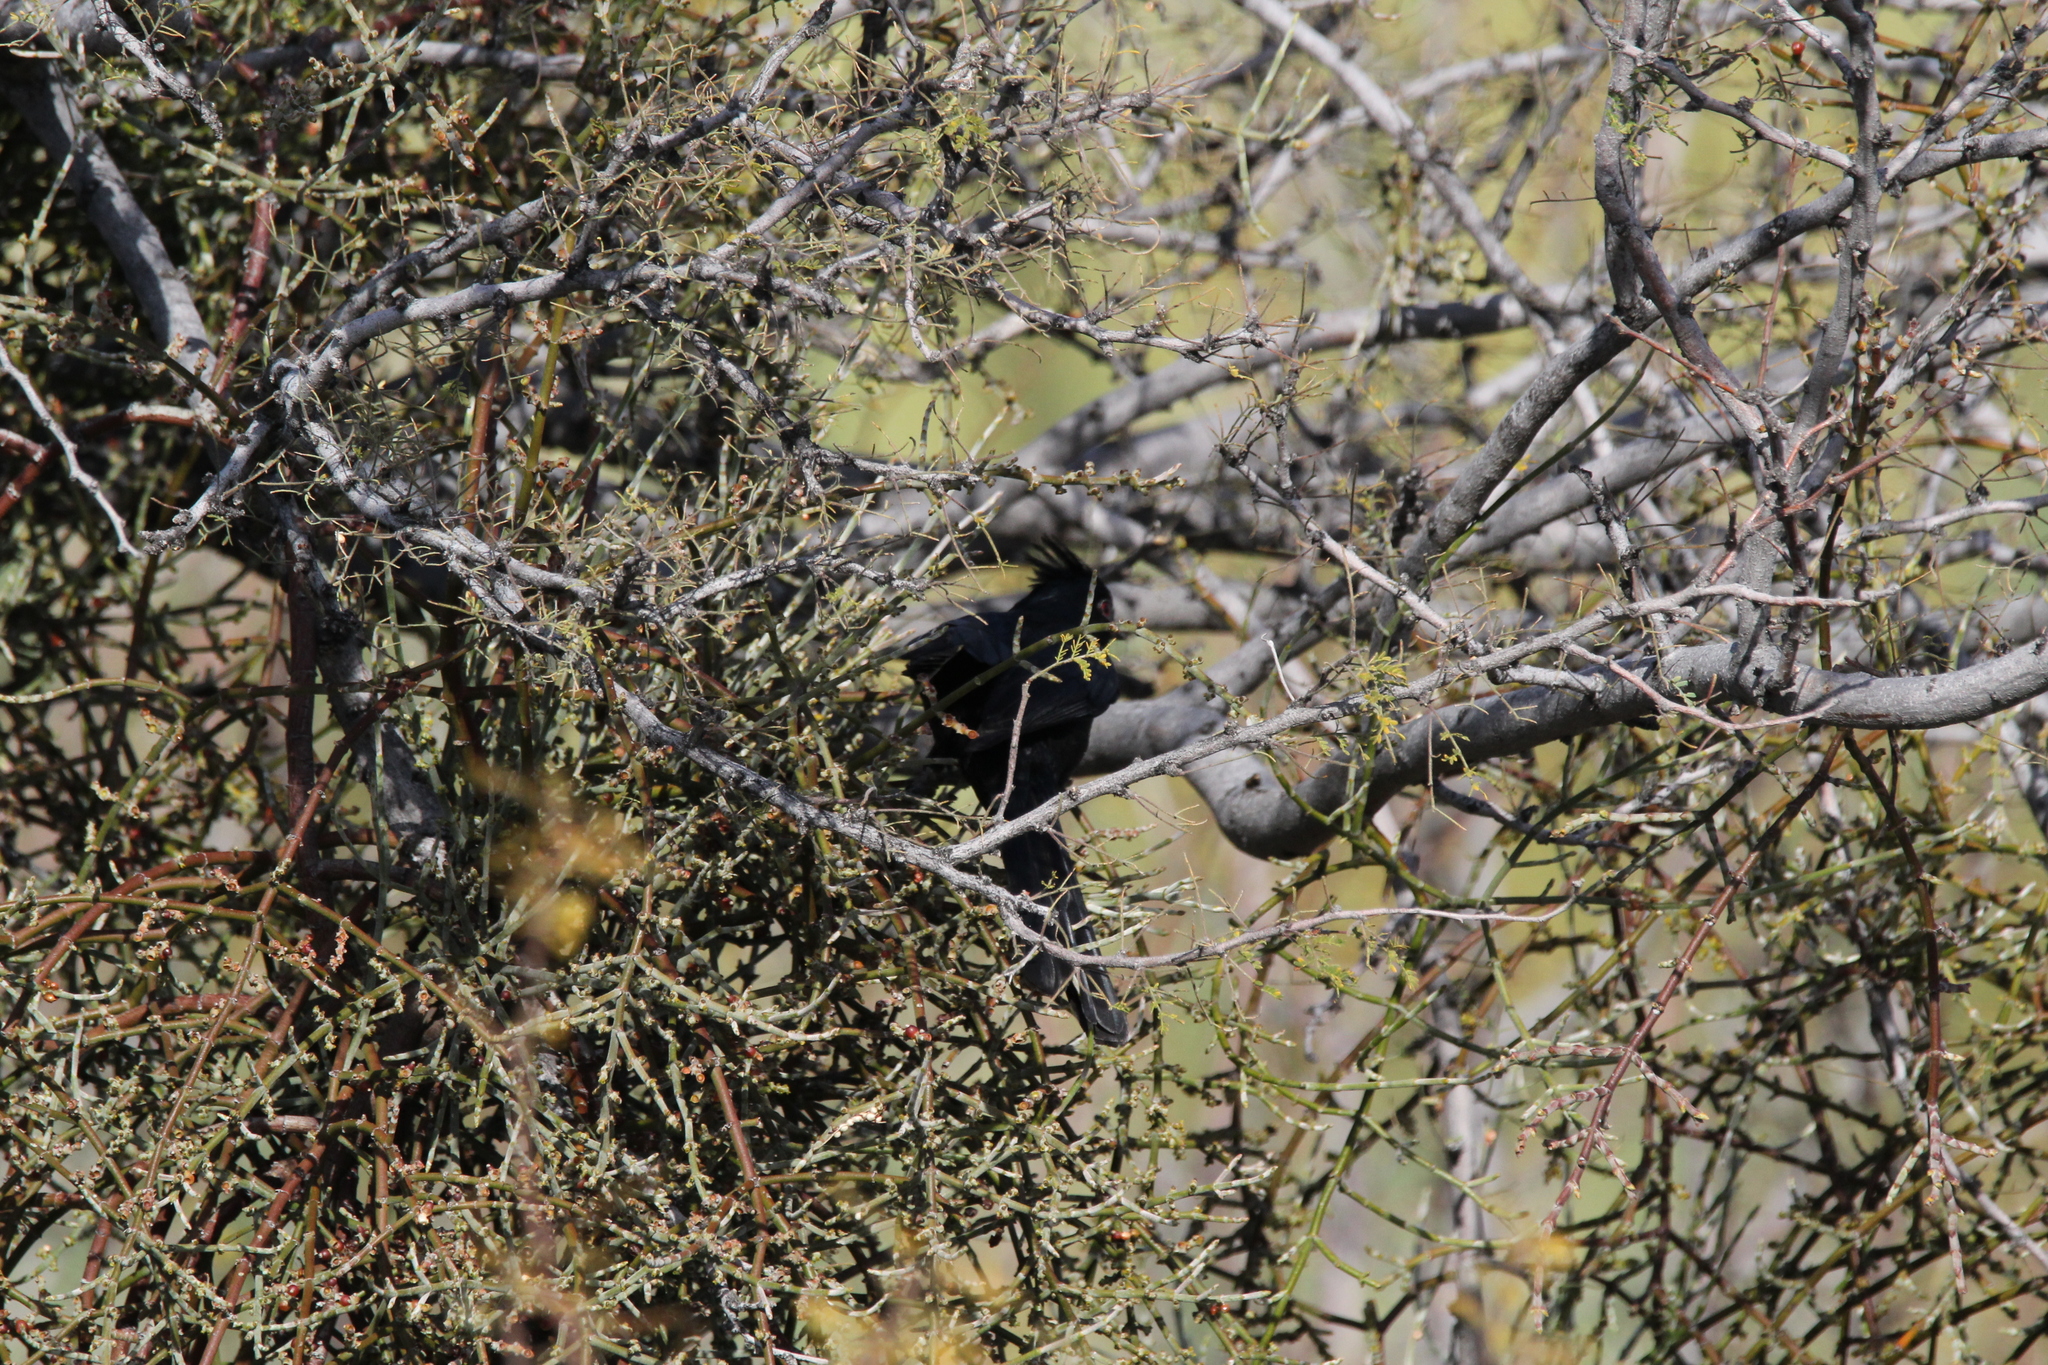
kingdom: Animalia
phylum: Chordata
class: Aves
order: Passeriformes
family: Ptilogonatidae
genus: Phainopepla
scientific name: Phainopepla nitens
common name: Phainopepla
